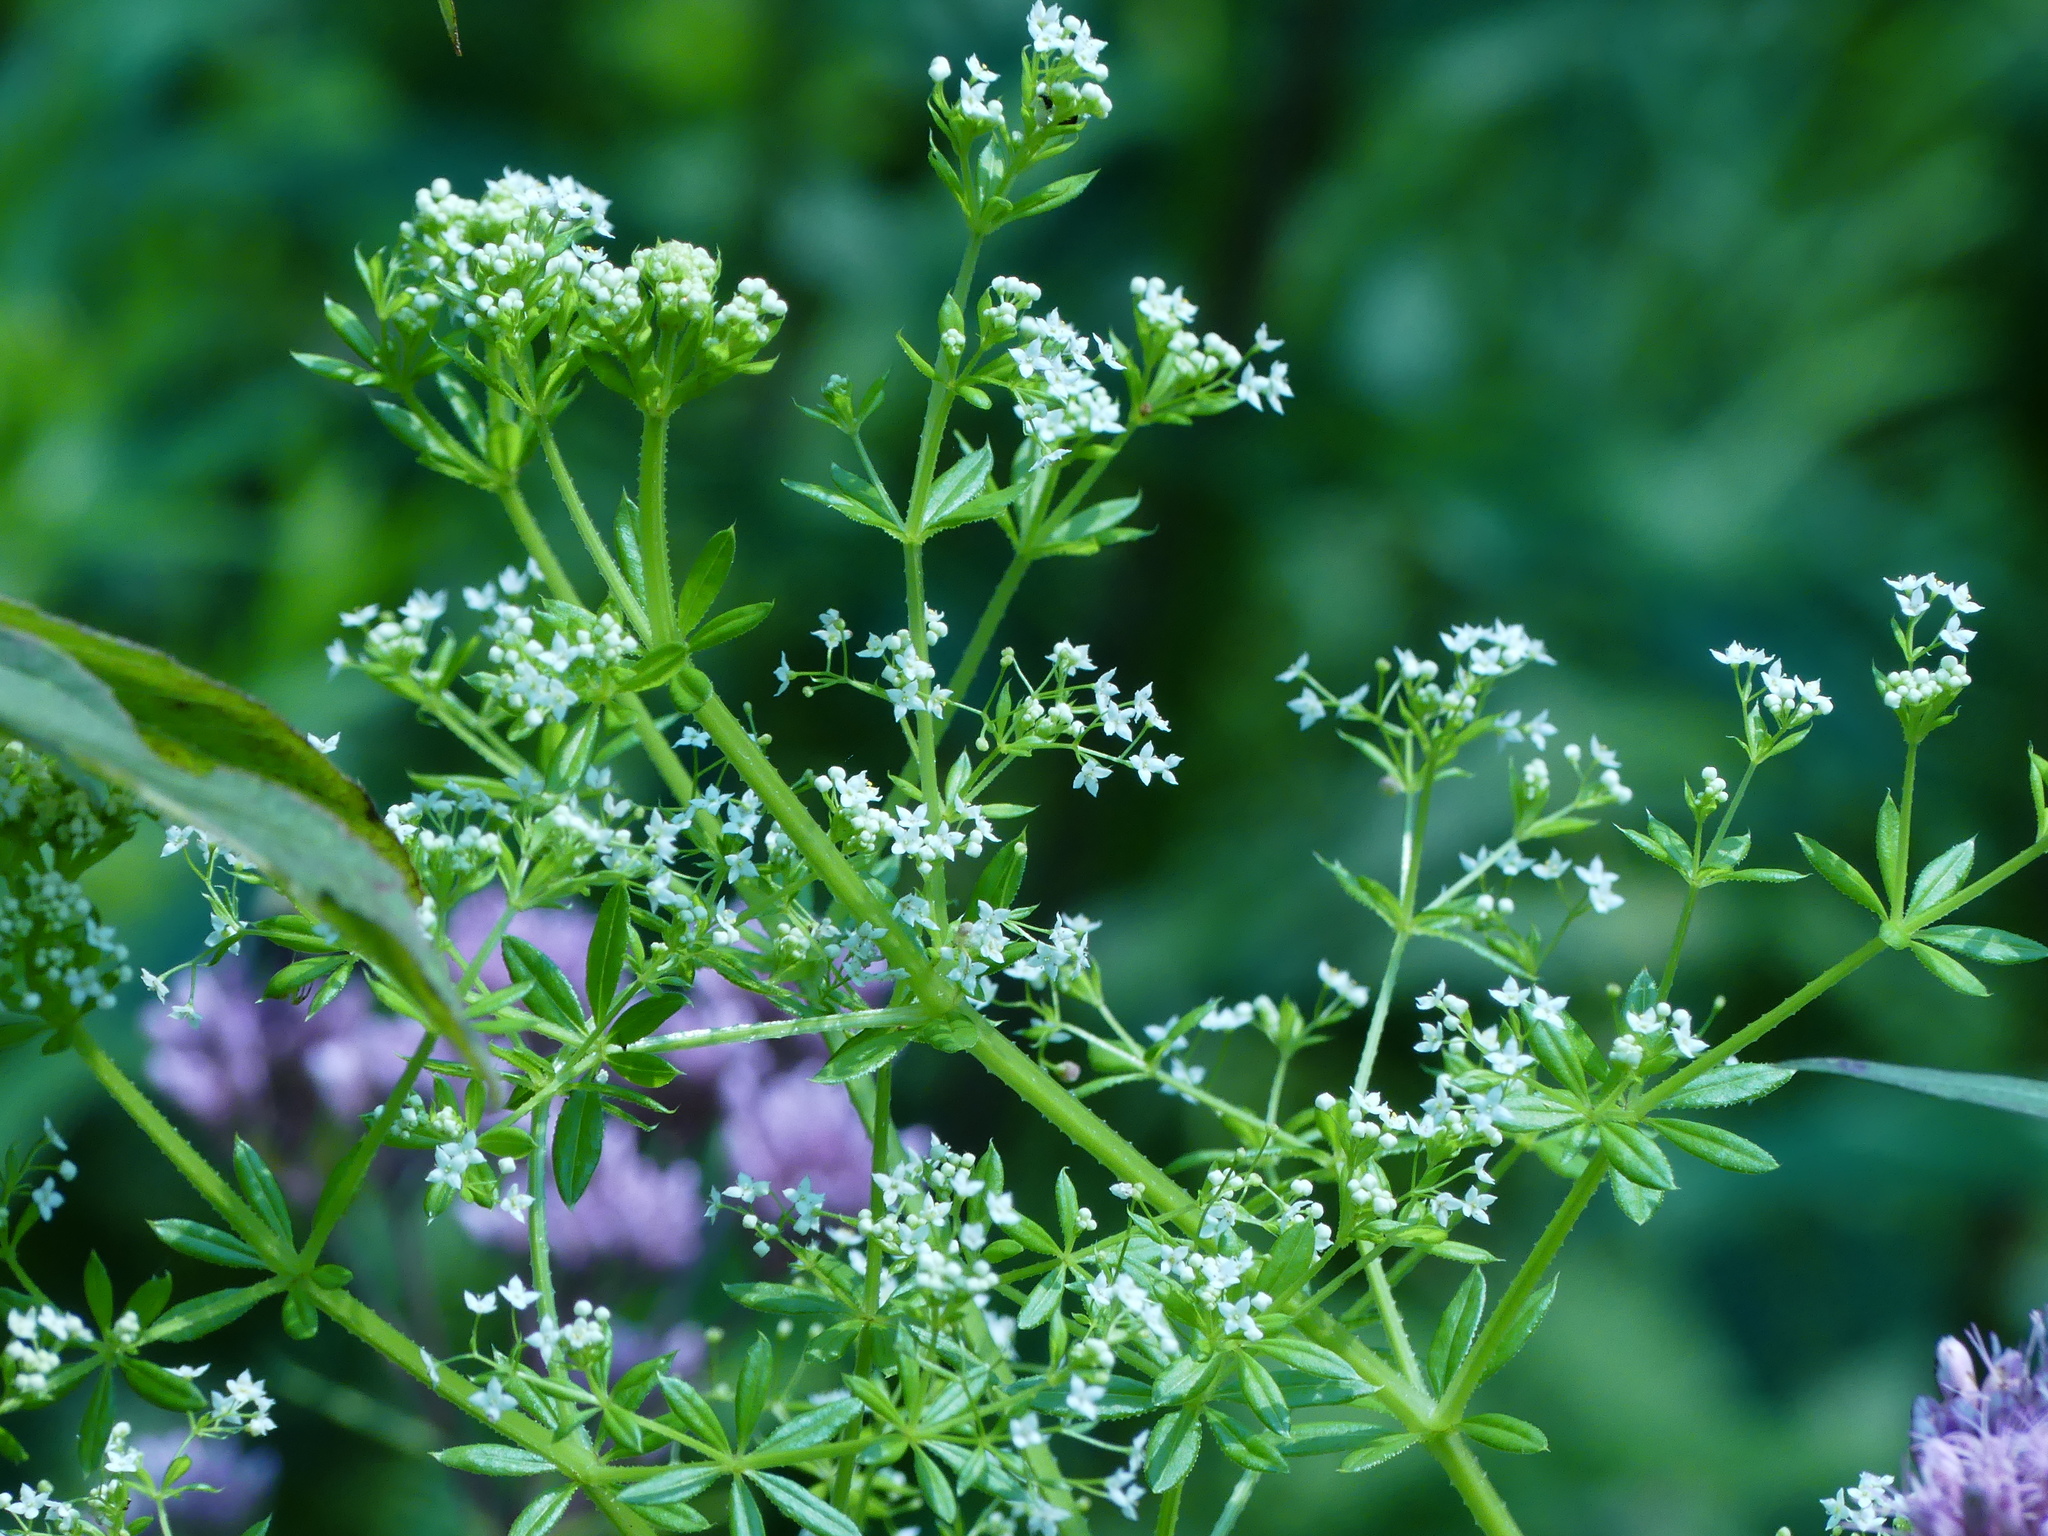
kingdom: Plantae
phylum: Tracheophyta
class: Magnoliopsida
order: Gentianales
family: Rubiaceae
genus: Galium
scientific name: Galium asprellum
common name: Rough bedstraw
